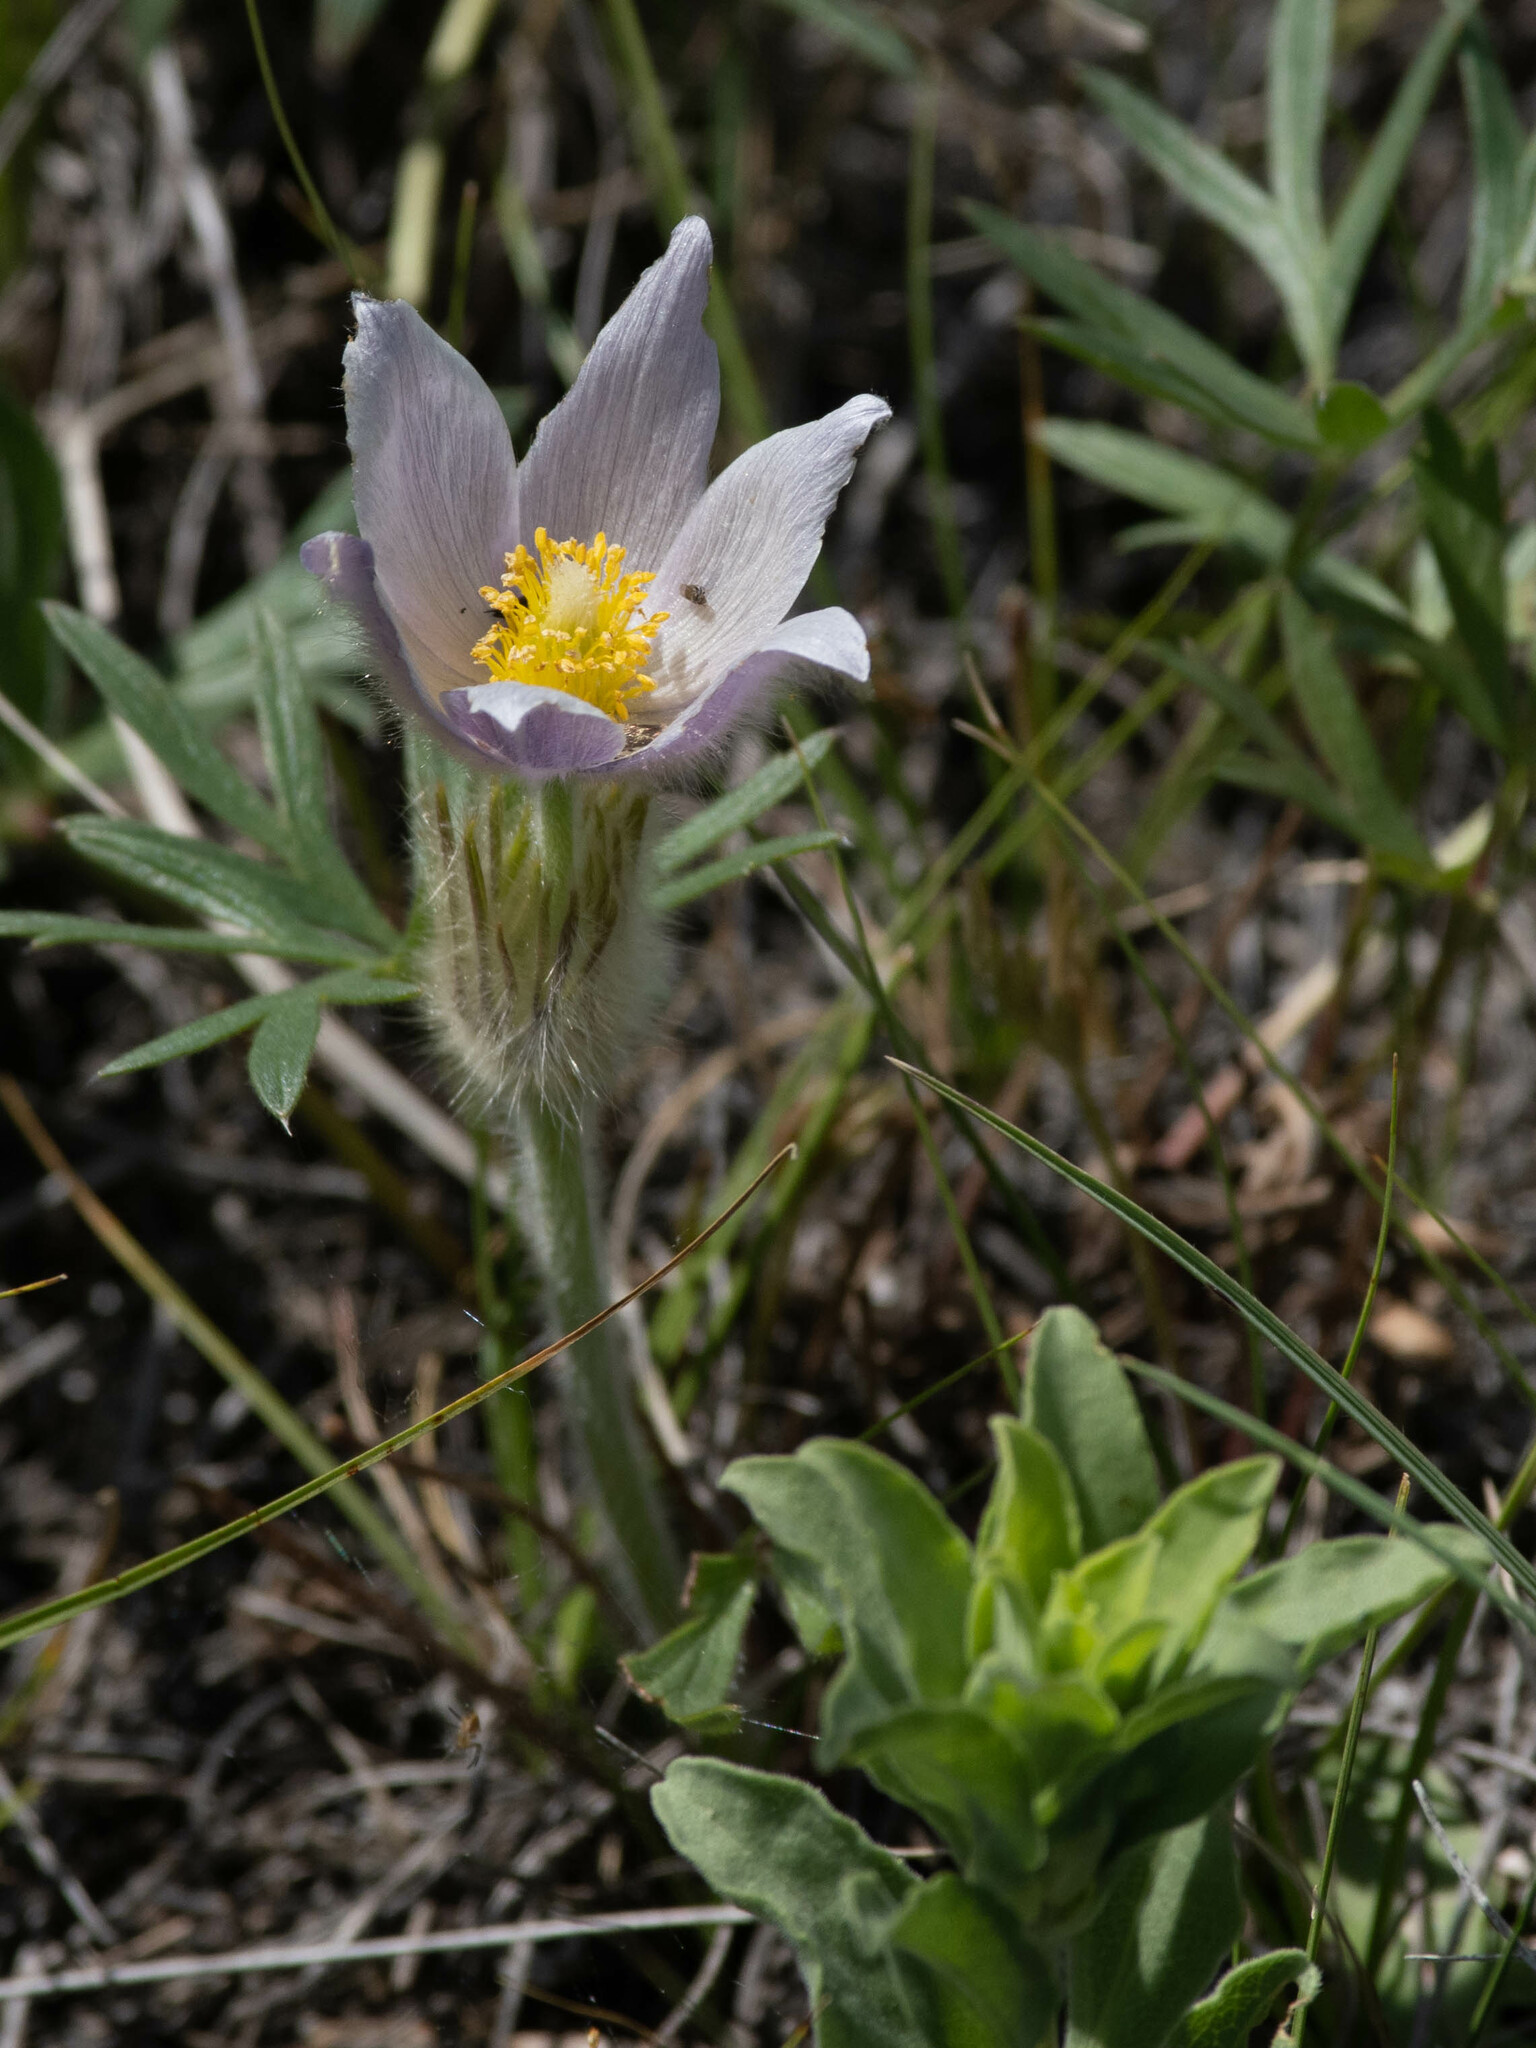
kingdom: Plantae
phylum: Tracheophyta
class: Magnoliopsida
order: Ranunculales
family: Ranunculaceae
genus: Pulsatilla
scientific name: Pulsatilla nuttalliana
